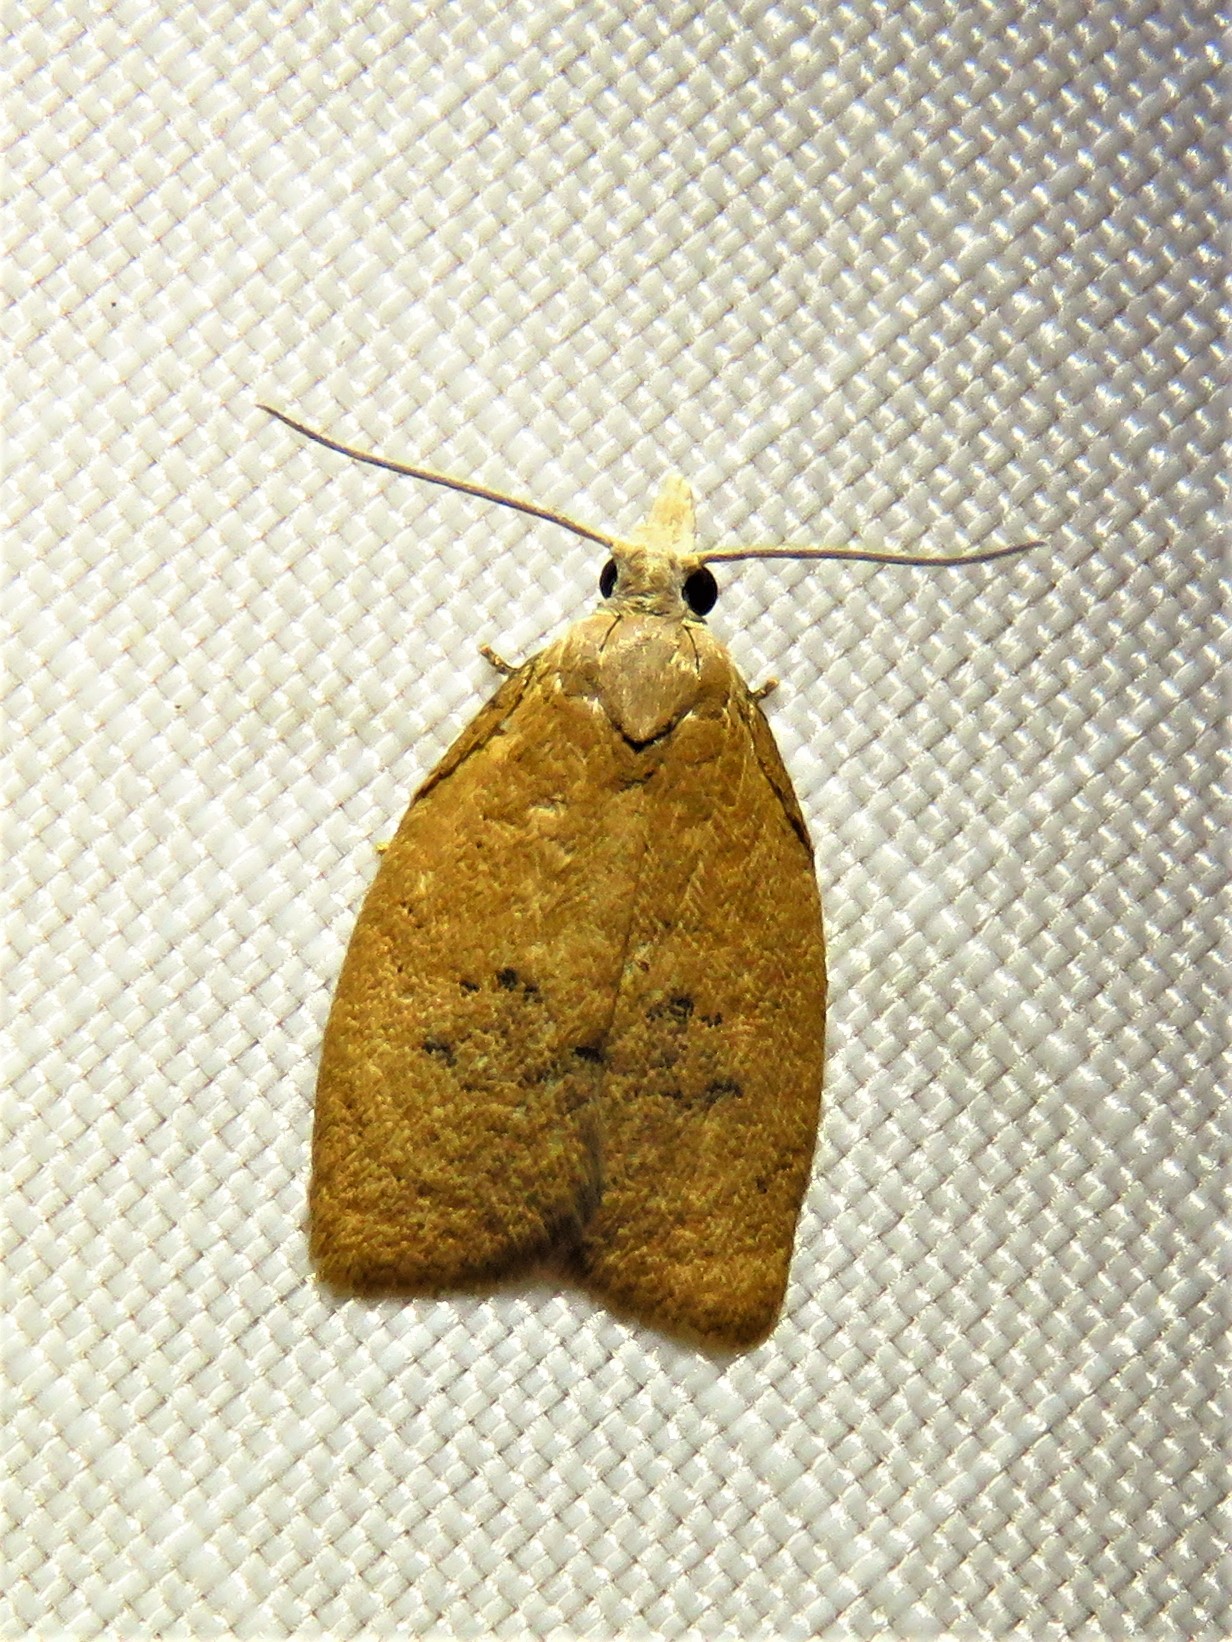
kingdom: Animalia
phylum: Arthropoda
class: Insecta
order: Lepidoptera
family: Tortricidae
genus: Sparganothoides
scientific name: Sparganothoides lentiginosana
